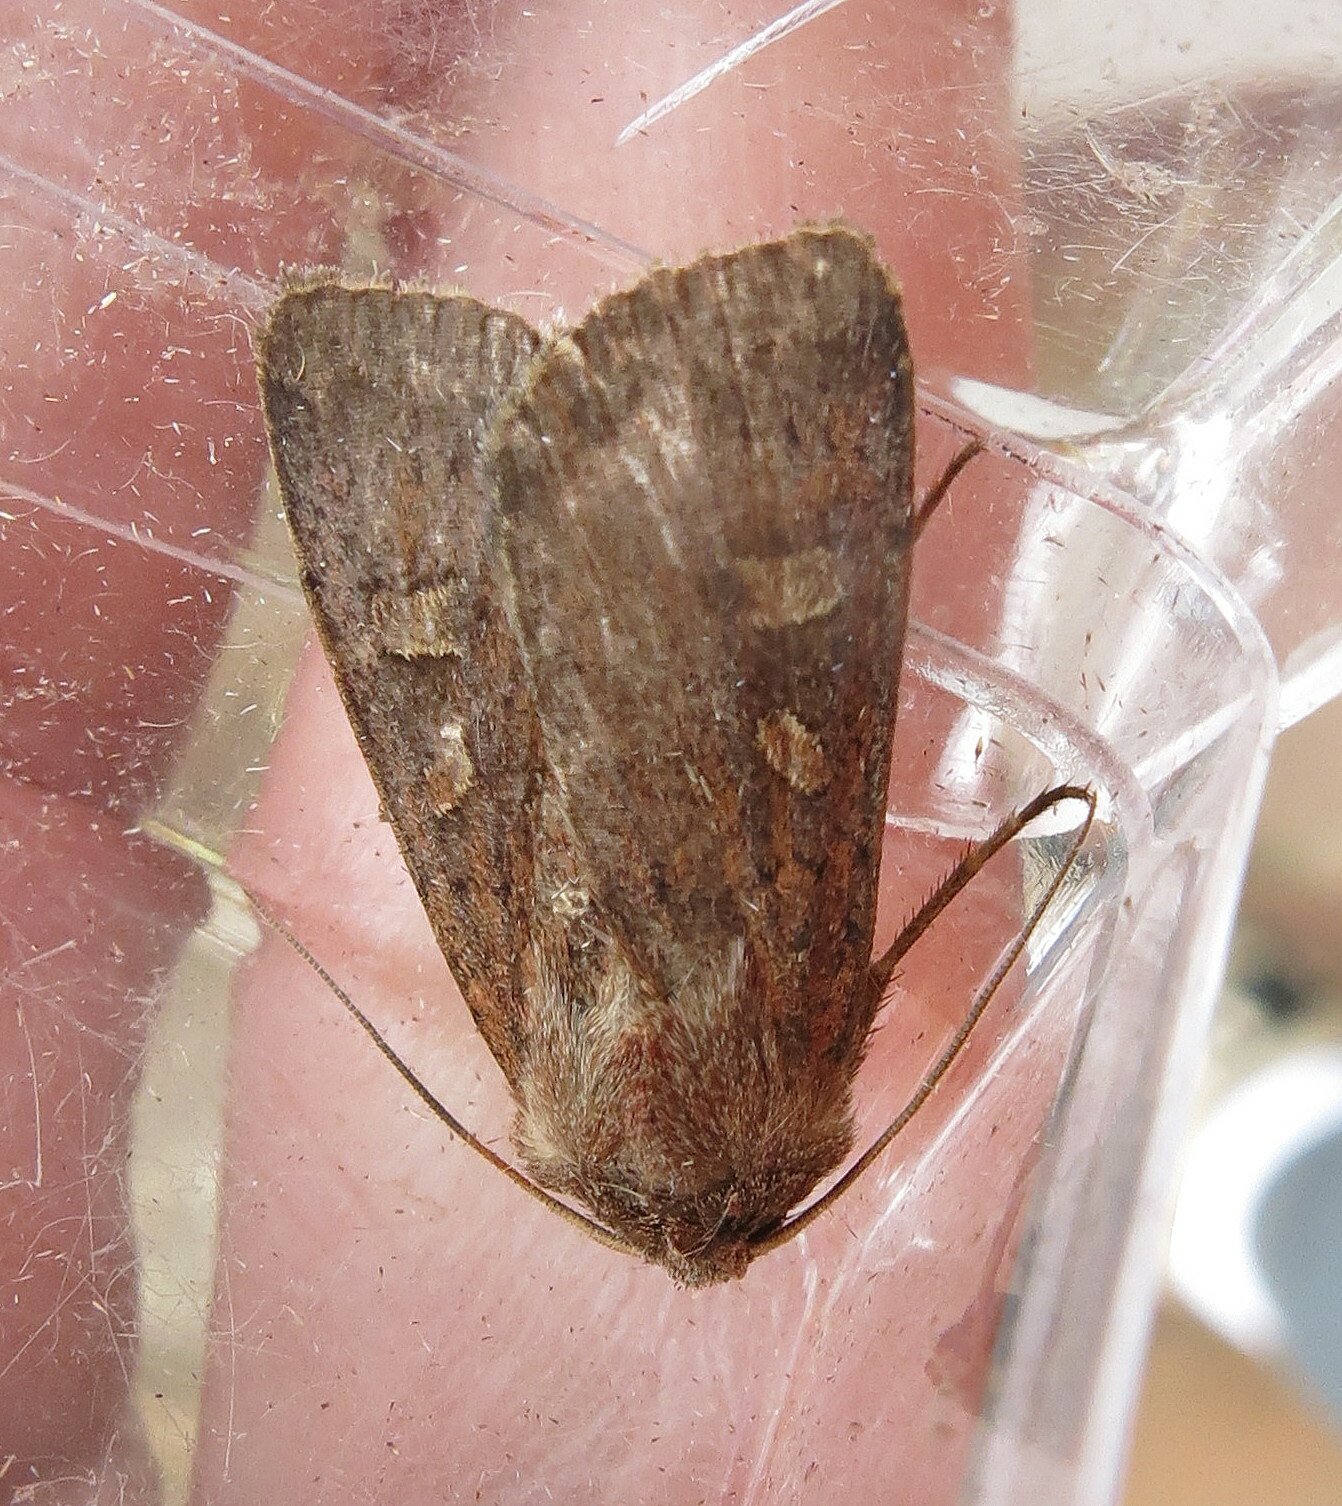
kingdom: Animalia
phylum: Arthropoda
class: Insecta
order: Lepidoptera
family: Noctuidae
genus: Xestia
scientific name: Xestia xanthographa
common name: Square-spot rustic
